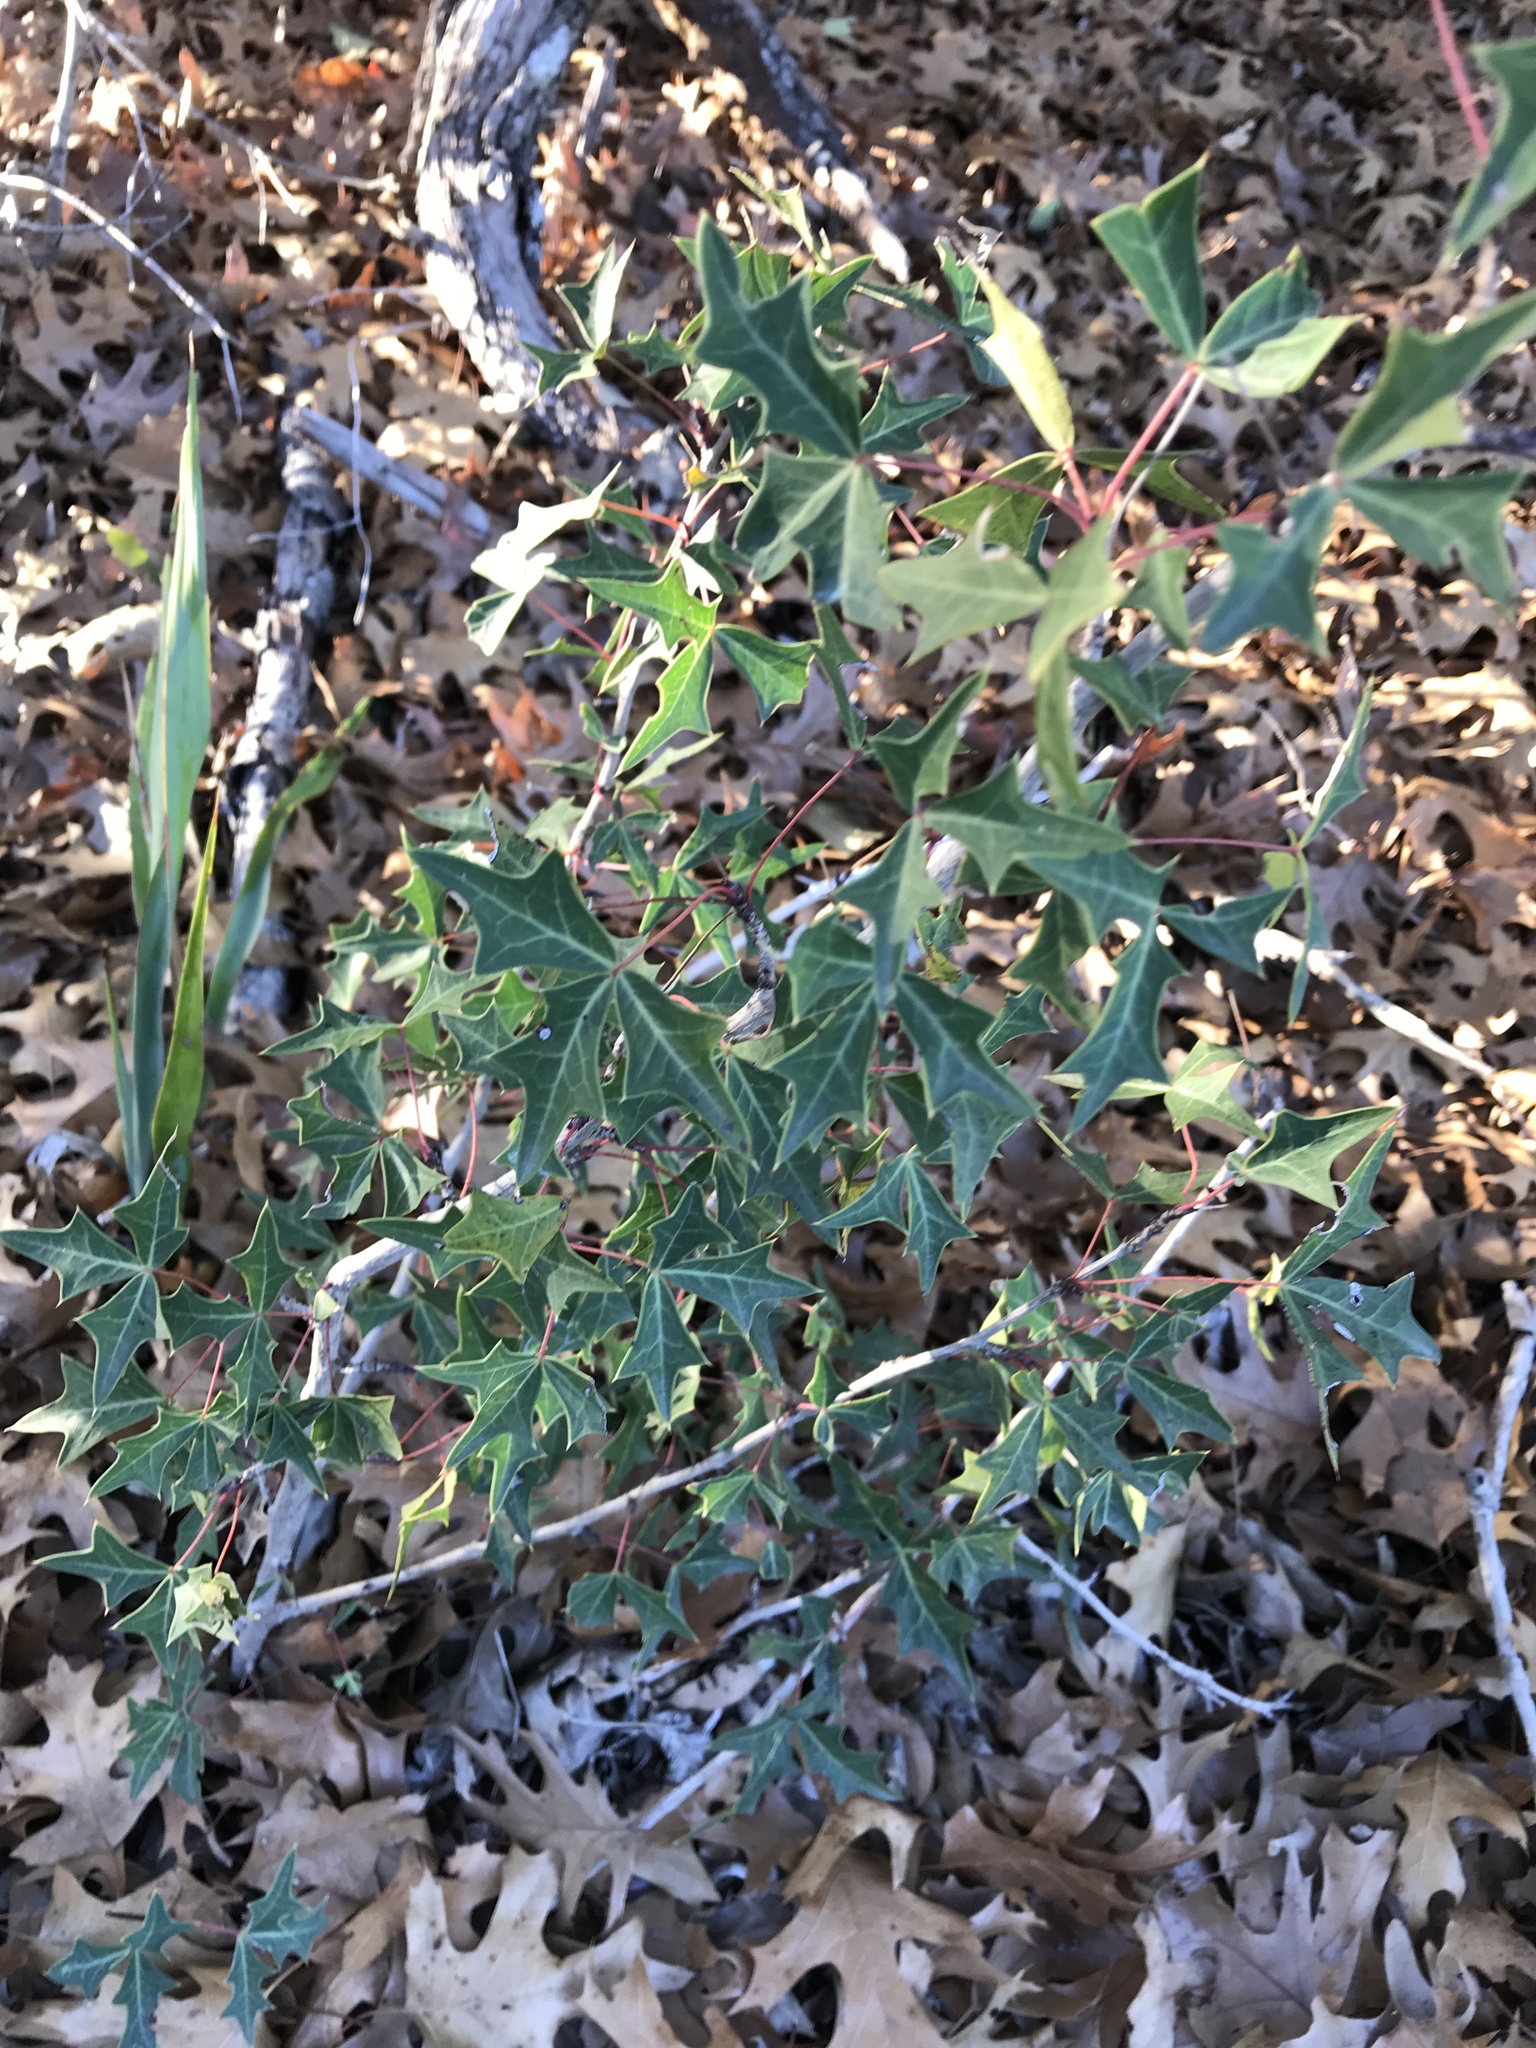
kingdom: Plantae
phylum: Tracheophyta
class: Magnoliopsida
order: Ranunculales
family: Berberidaceae
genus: Alloberberis
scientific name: Alloberberis trifoliolata
